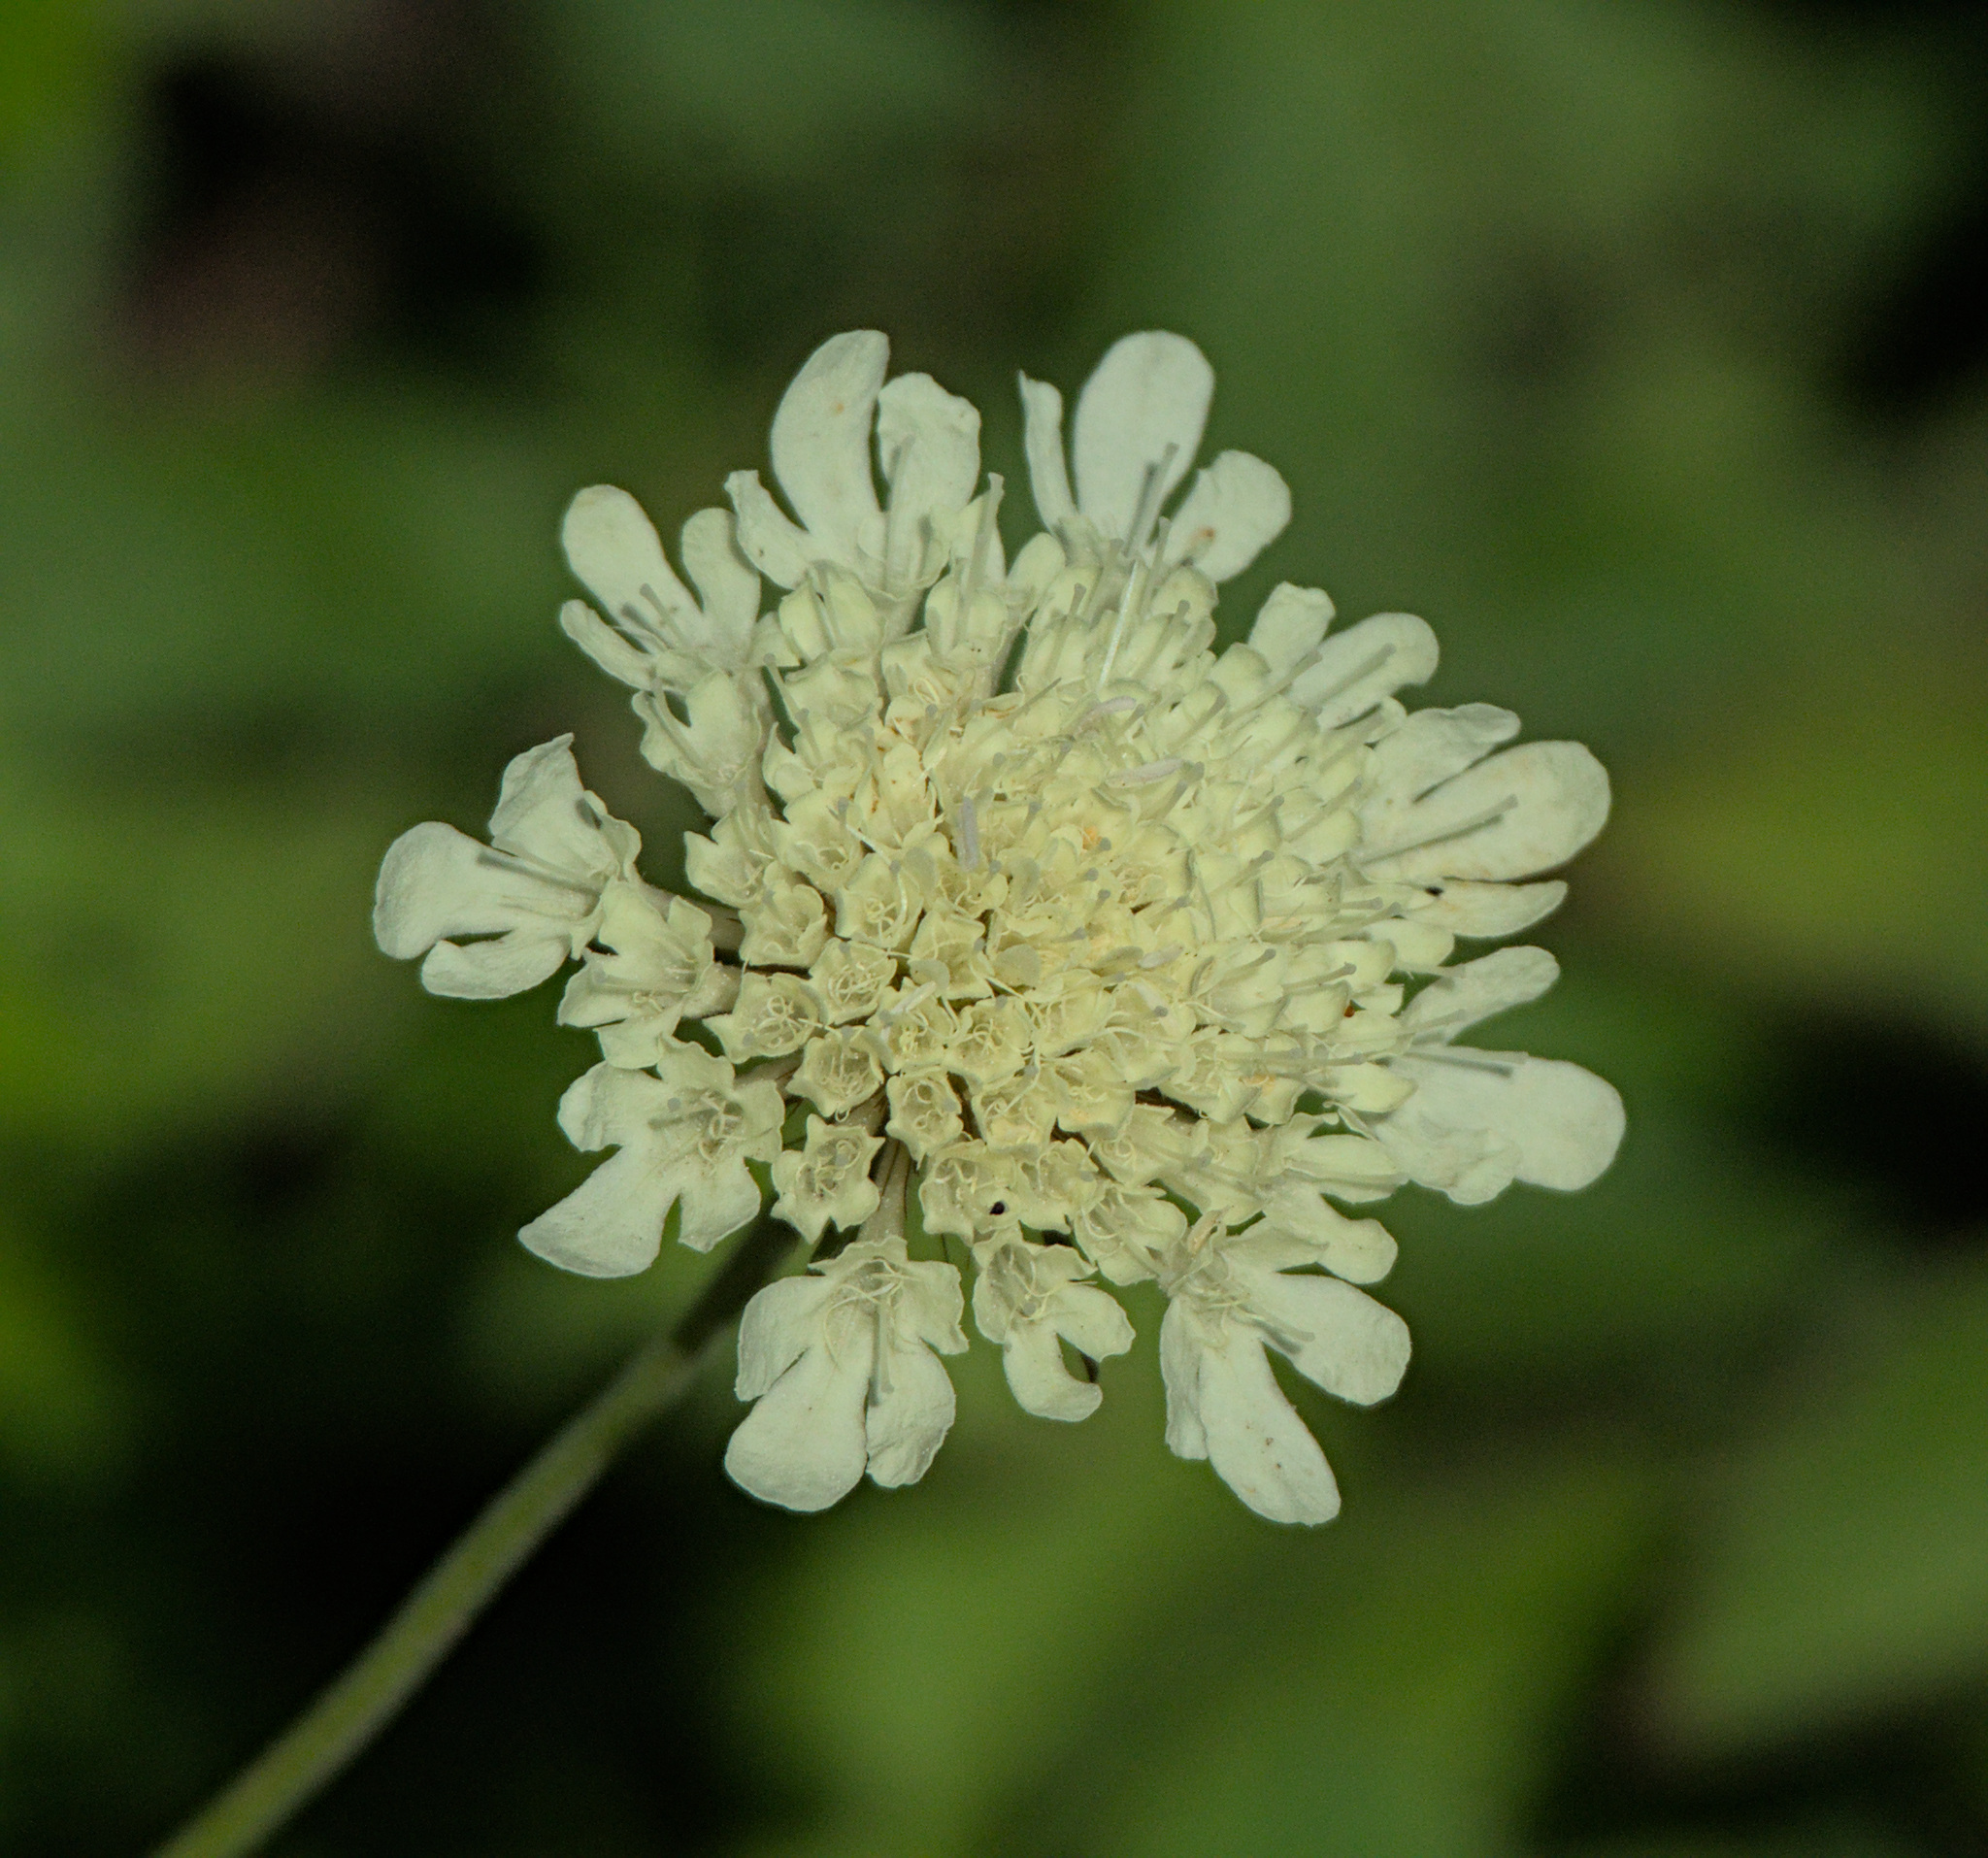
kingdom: Plantae
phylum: Tracheophyta
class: Magnoliopsida
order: Dipsacales
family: Caprifoliaceae
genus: Scabiosa
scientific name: Scabiosa ochroleuca
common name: Cream pincushions
